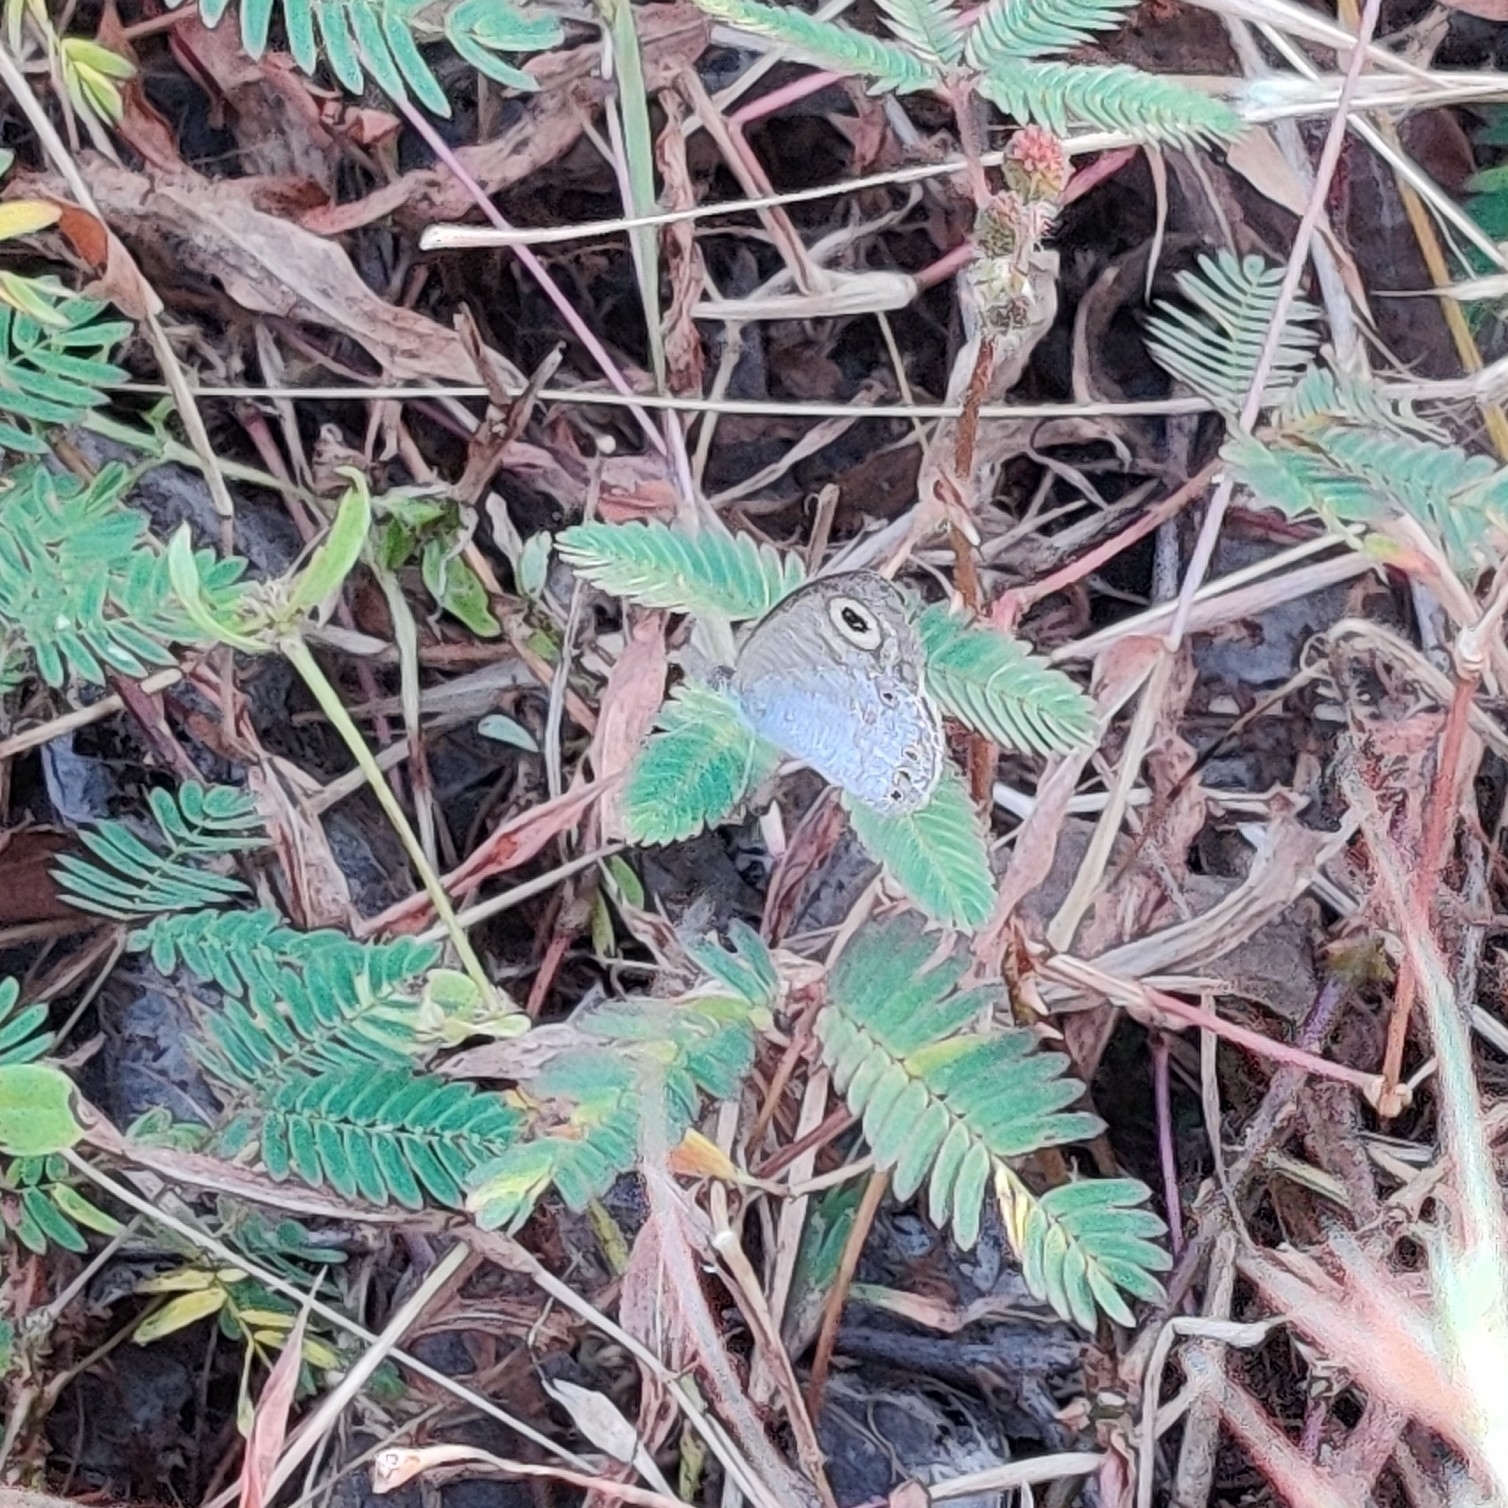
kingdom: Animalia
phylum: Arthropoda
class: Insecta
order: Lepidoptera
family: Nymphalidae
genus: Ypthima
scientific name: Ypthima huebneri
